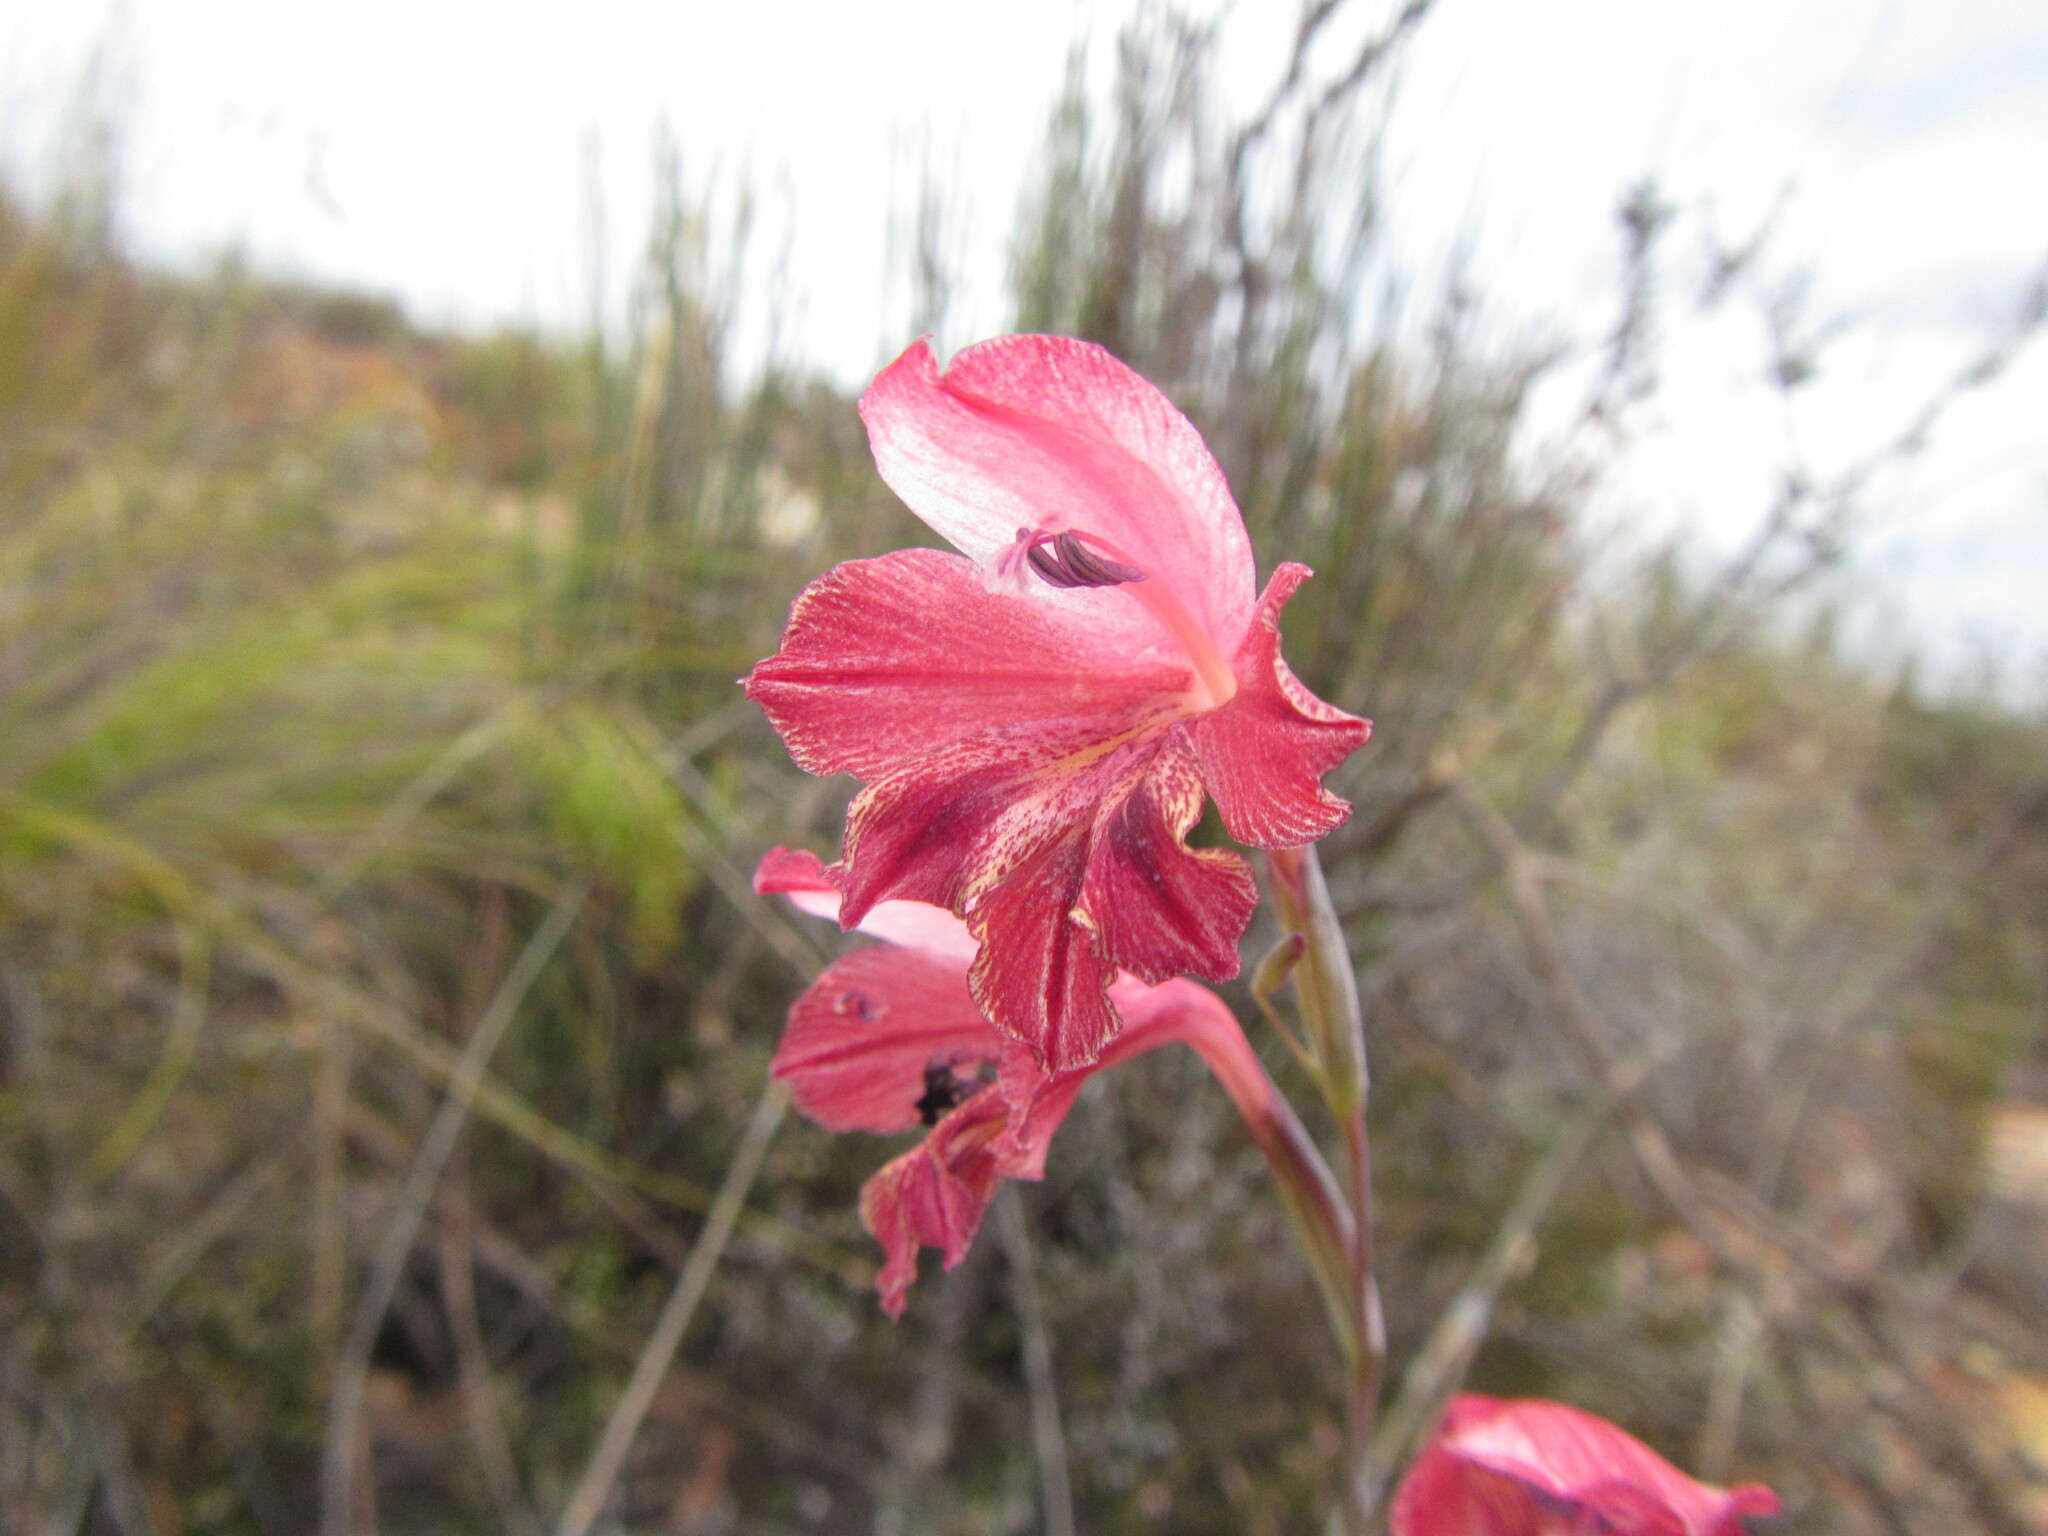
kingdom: Plantae
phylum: Tracheophyta
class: Liliopsida
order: Asparagales
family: Iridaceae
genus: Gladiolus
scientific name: Gladiolus guthriei
